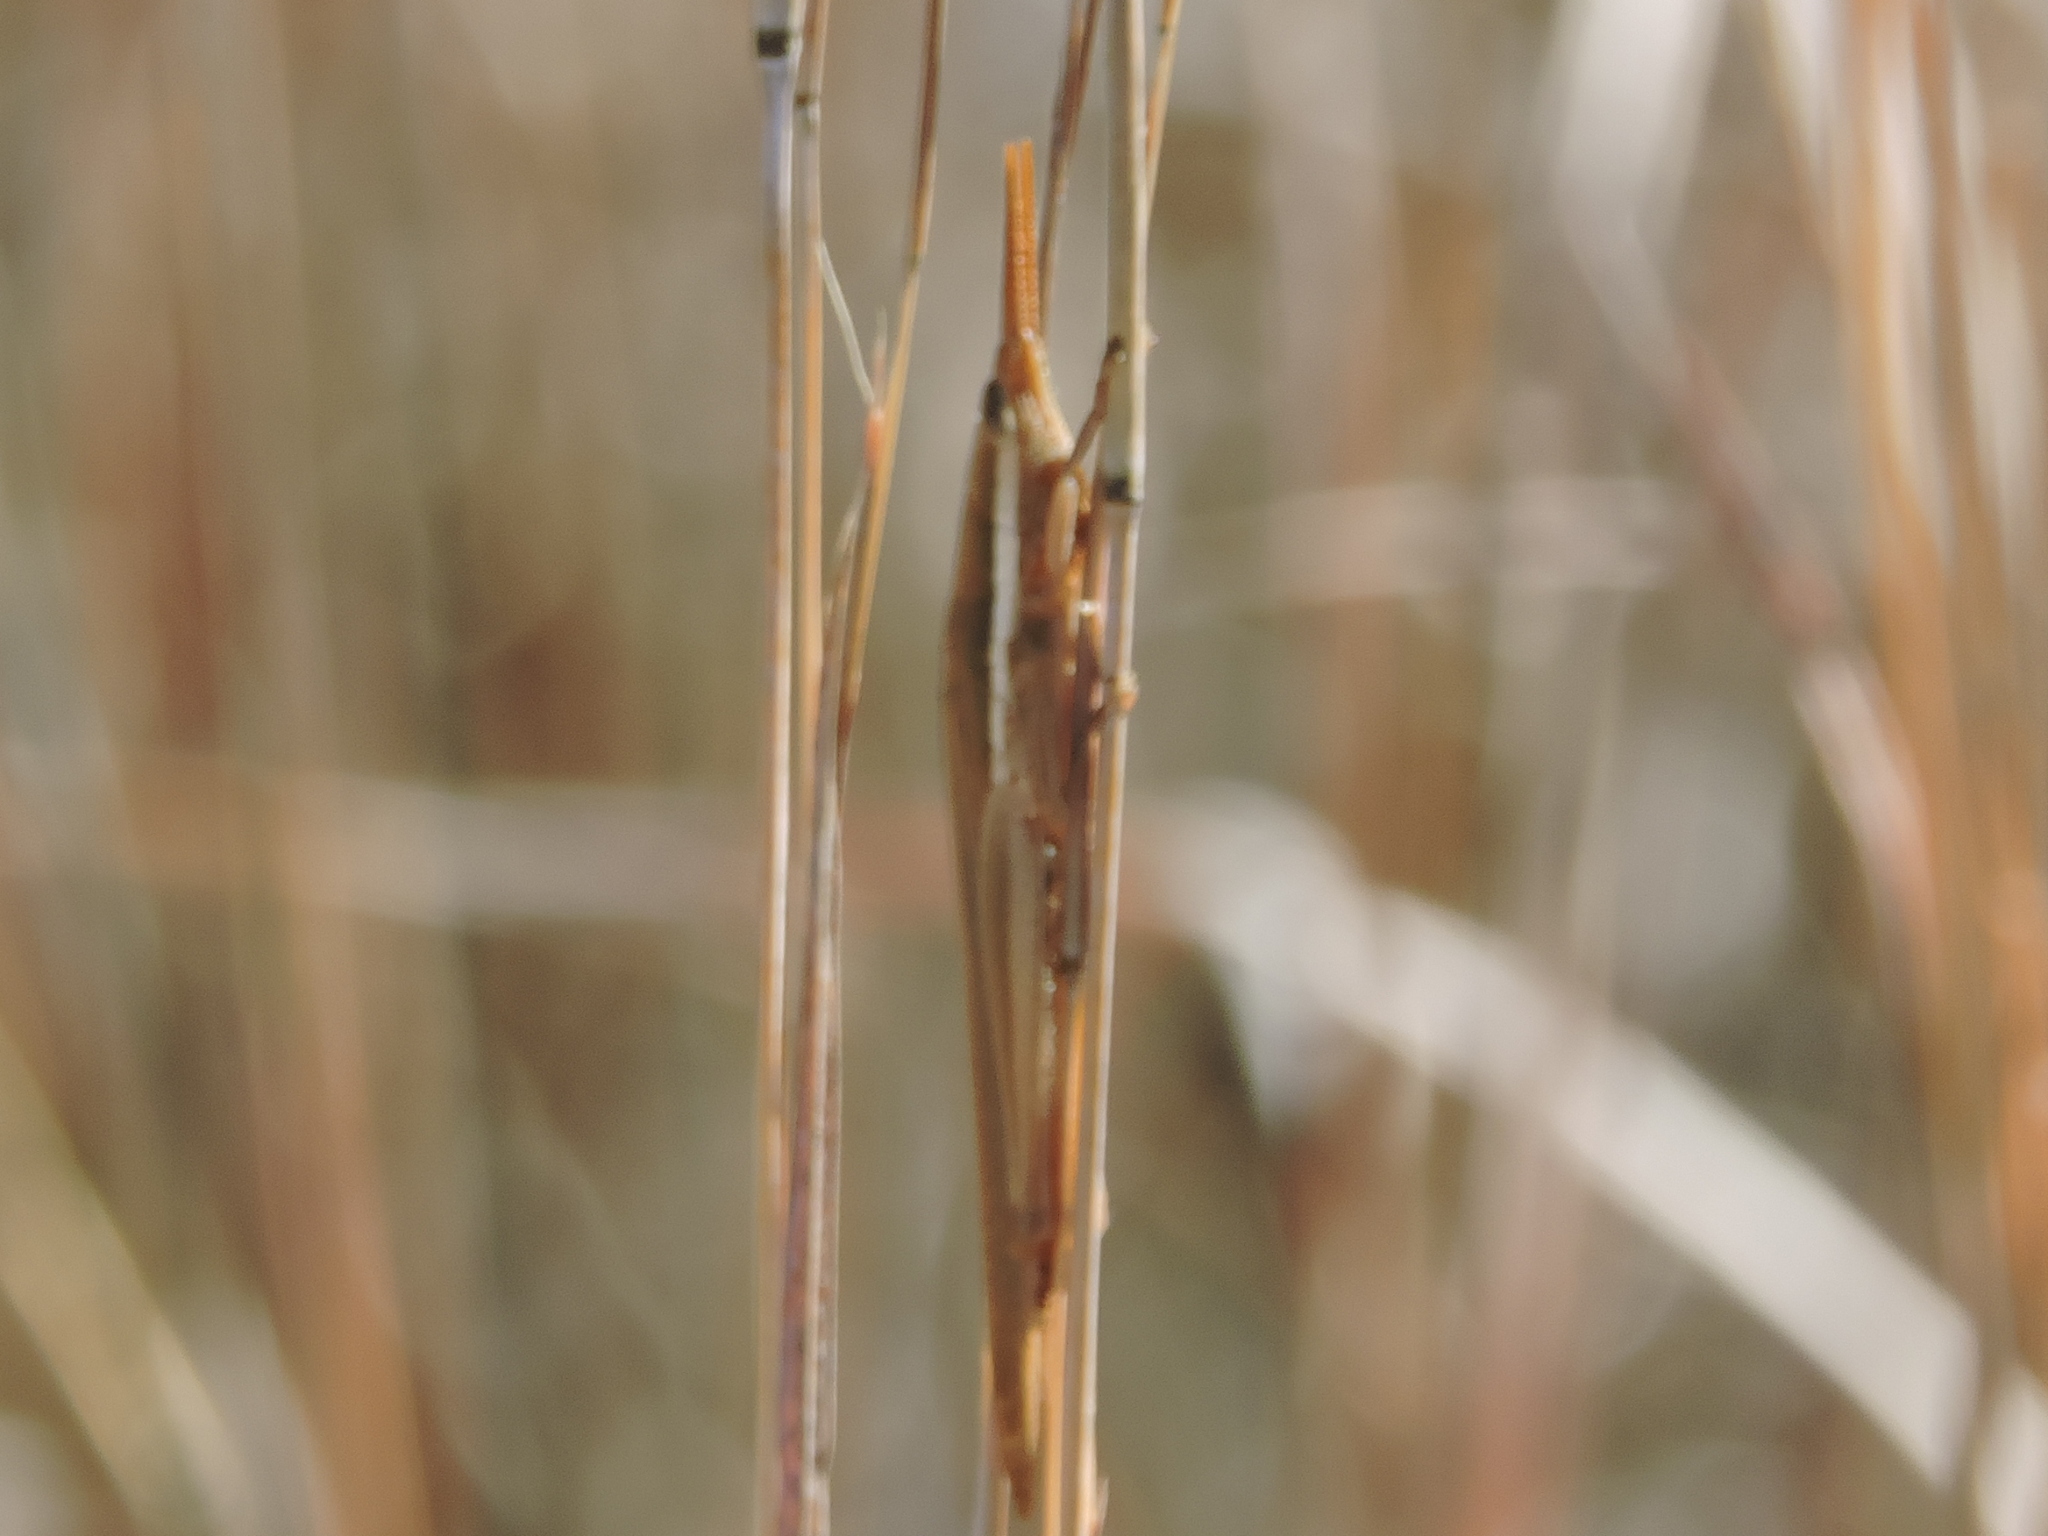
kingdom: Animalia
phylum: Arthropoda
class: Insecta
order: Orthoptera
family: Acrididae
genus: Leptysma
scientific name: Leptysma marginicollis
